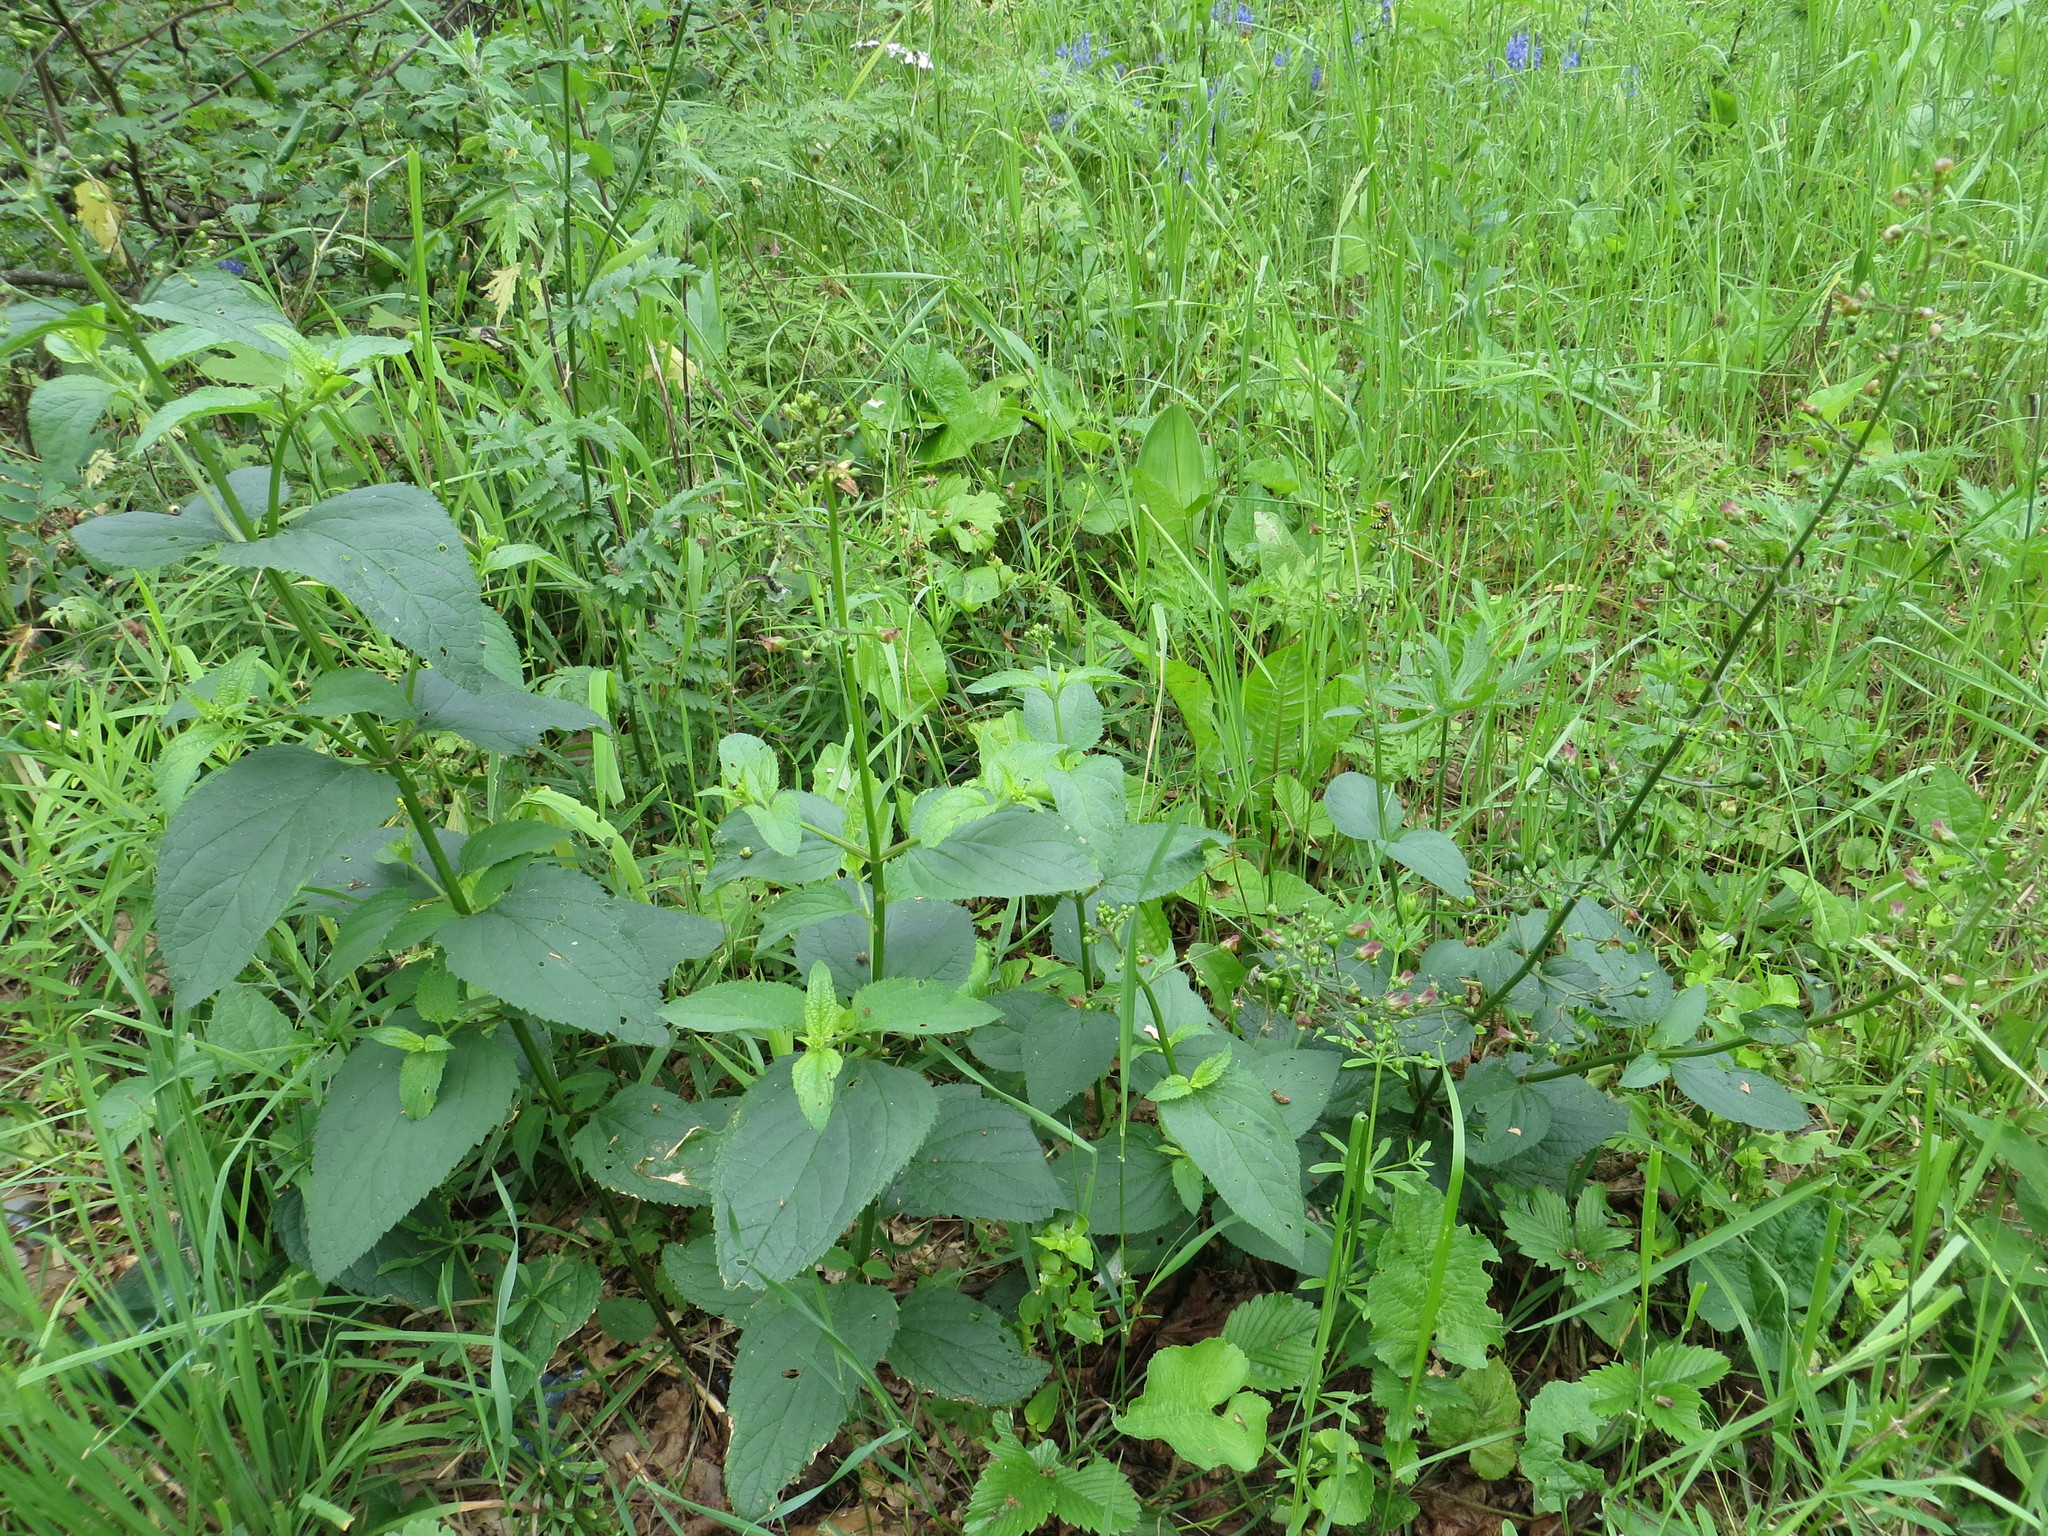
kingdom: Plantae
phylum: Tracheophyta
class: Magnoliopsida
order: Lamiales
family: Scrophulariaceae
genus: Scrophularia
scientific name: Scrophularia nodosa
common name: Common figwort
